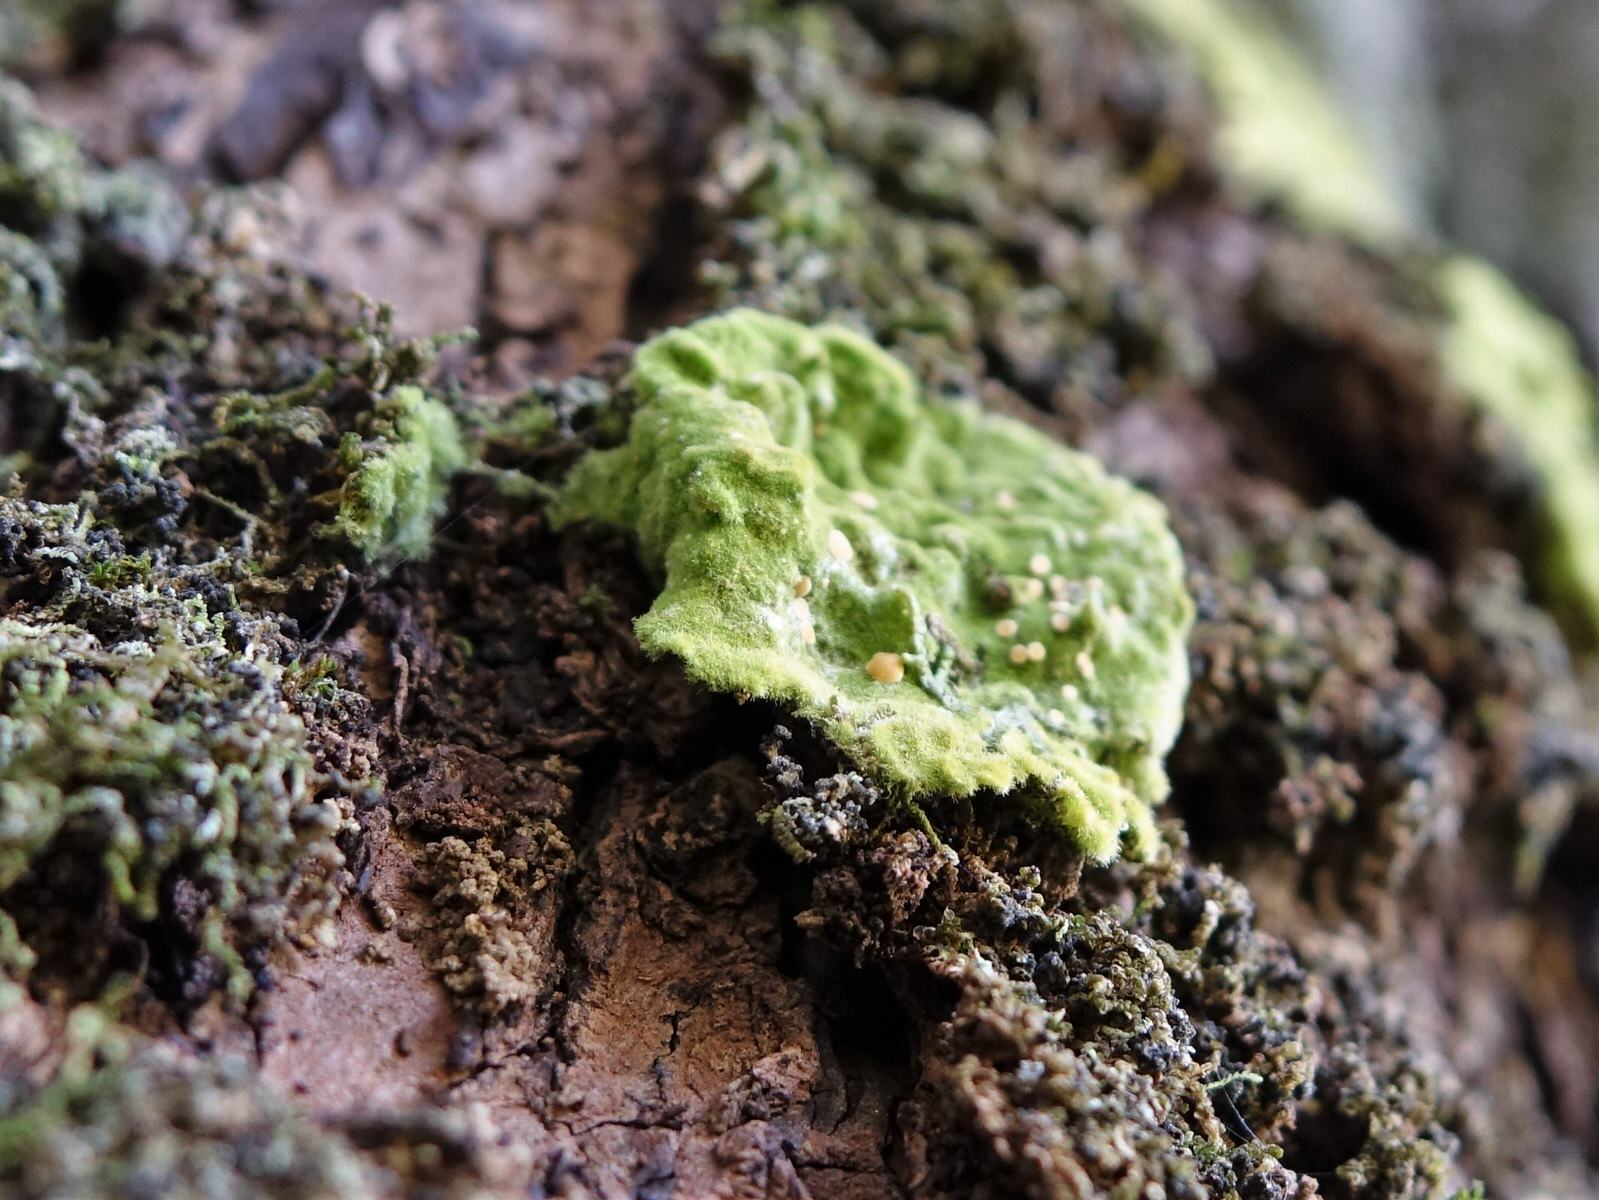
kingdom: Fungi
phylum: Ascomycota
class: Lecanoromycetes
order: Ostropales
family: Coenogoniaceae
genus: Coenogonium
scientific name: Coenogonium implexum
